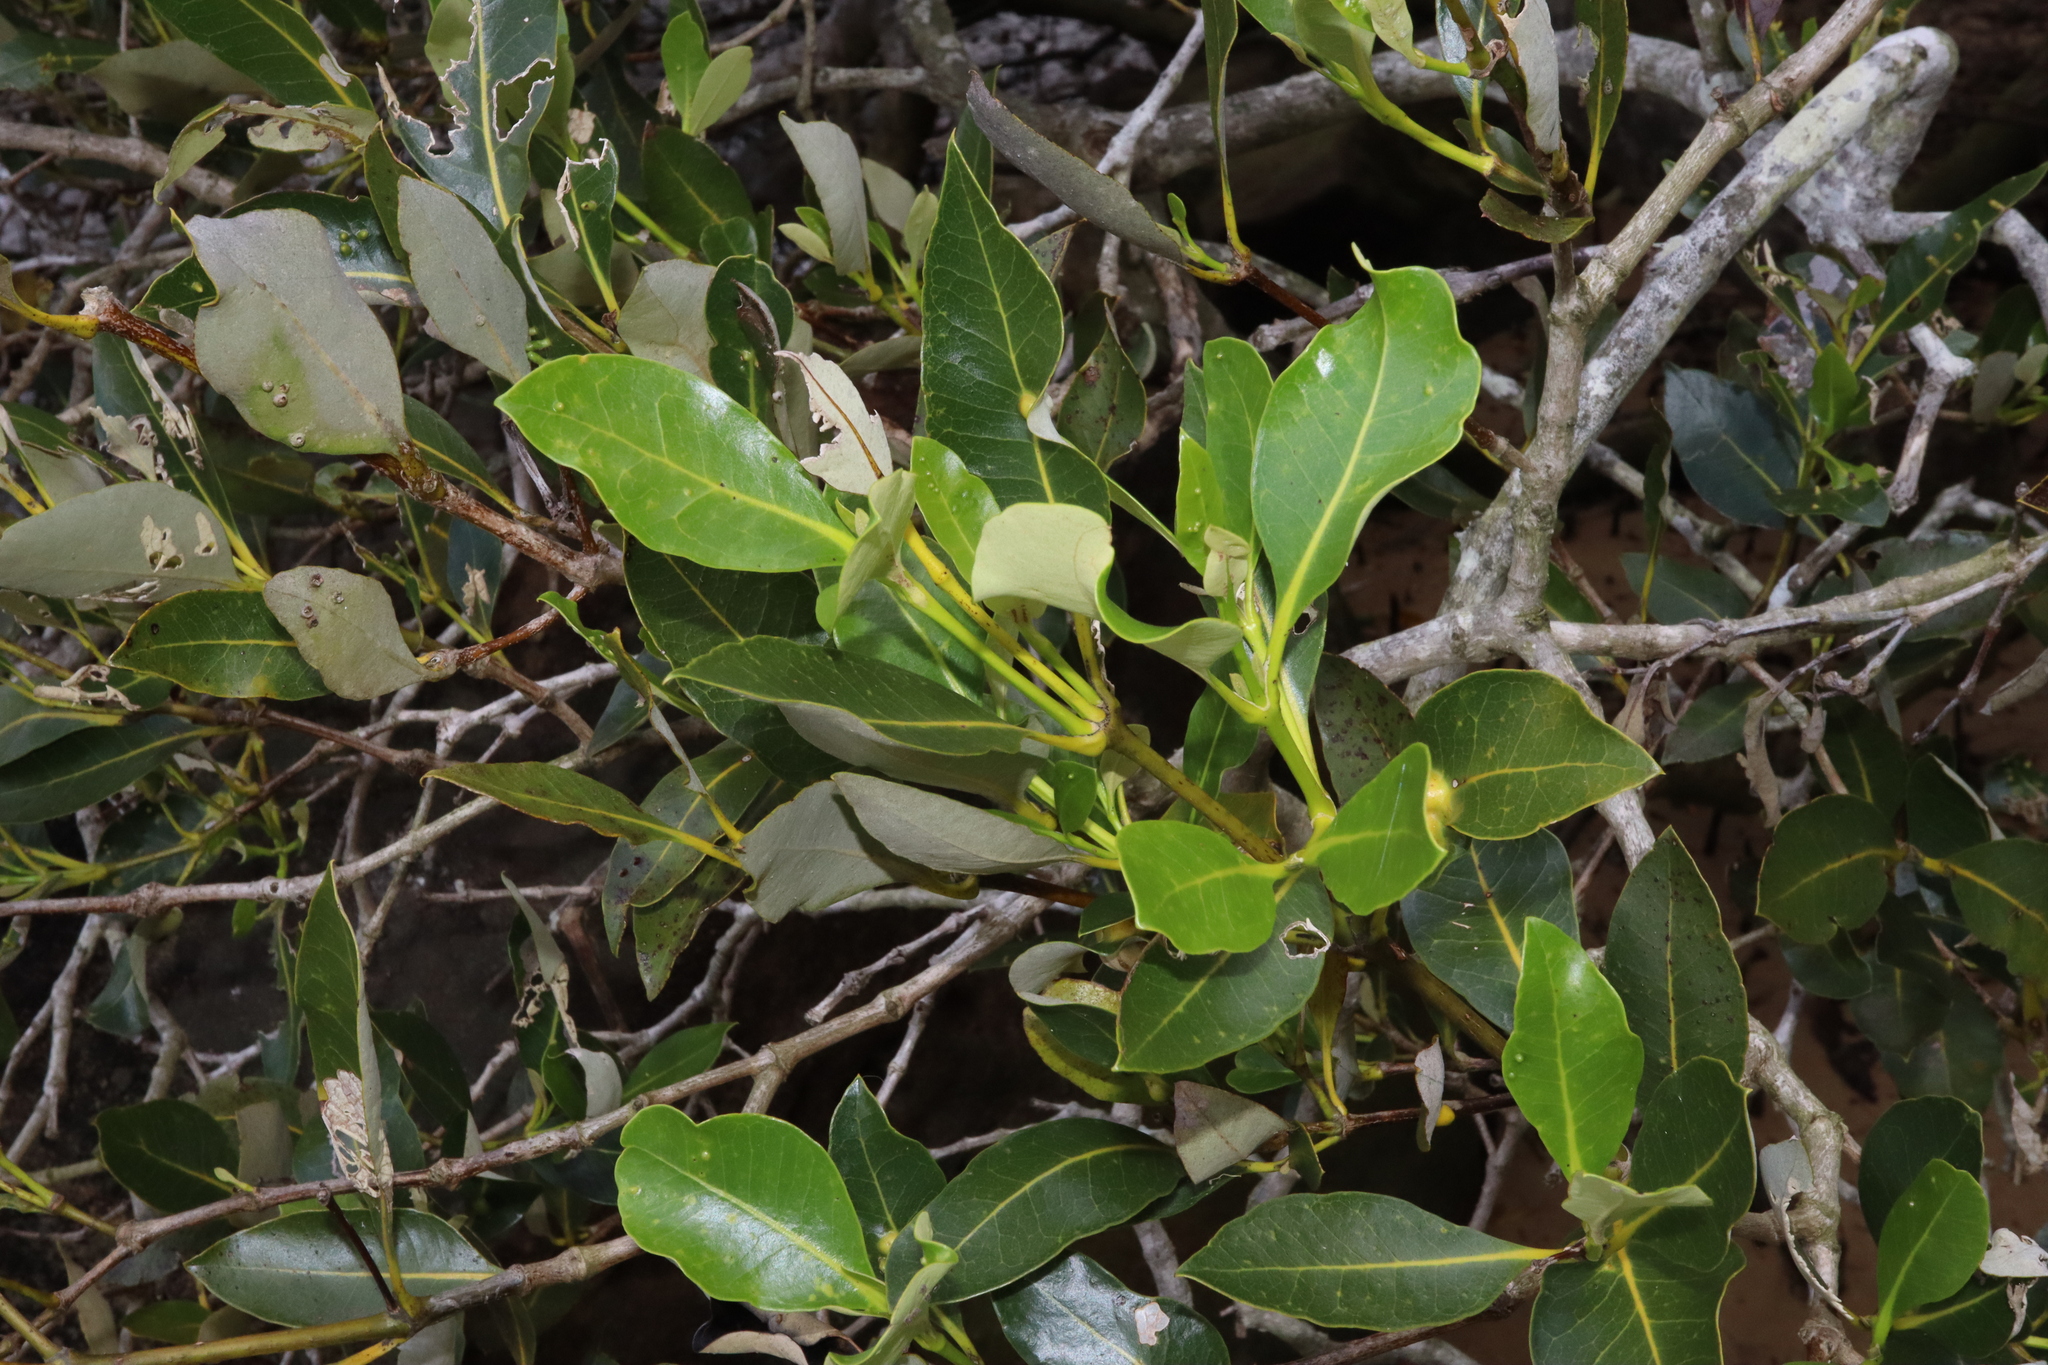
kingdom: Plantae
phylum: Tracheophyta
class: Magnoliopsida
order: Lamiales
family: Acanthaceae
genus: Avicennia
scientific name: Avicennia marina
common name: Gray mangrove
